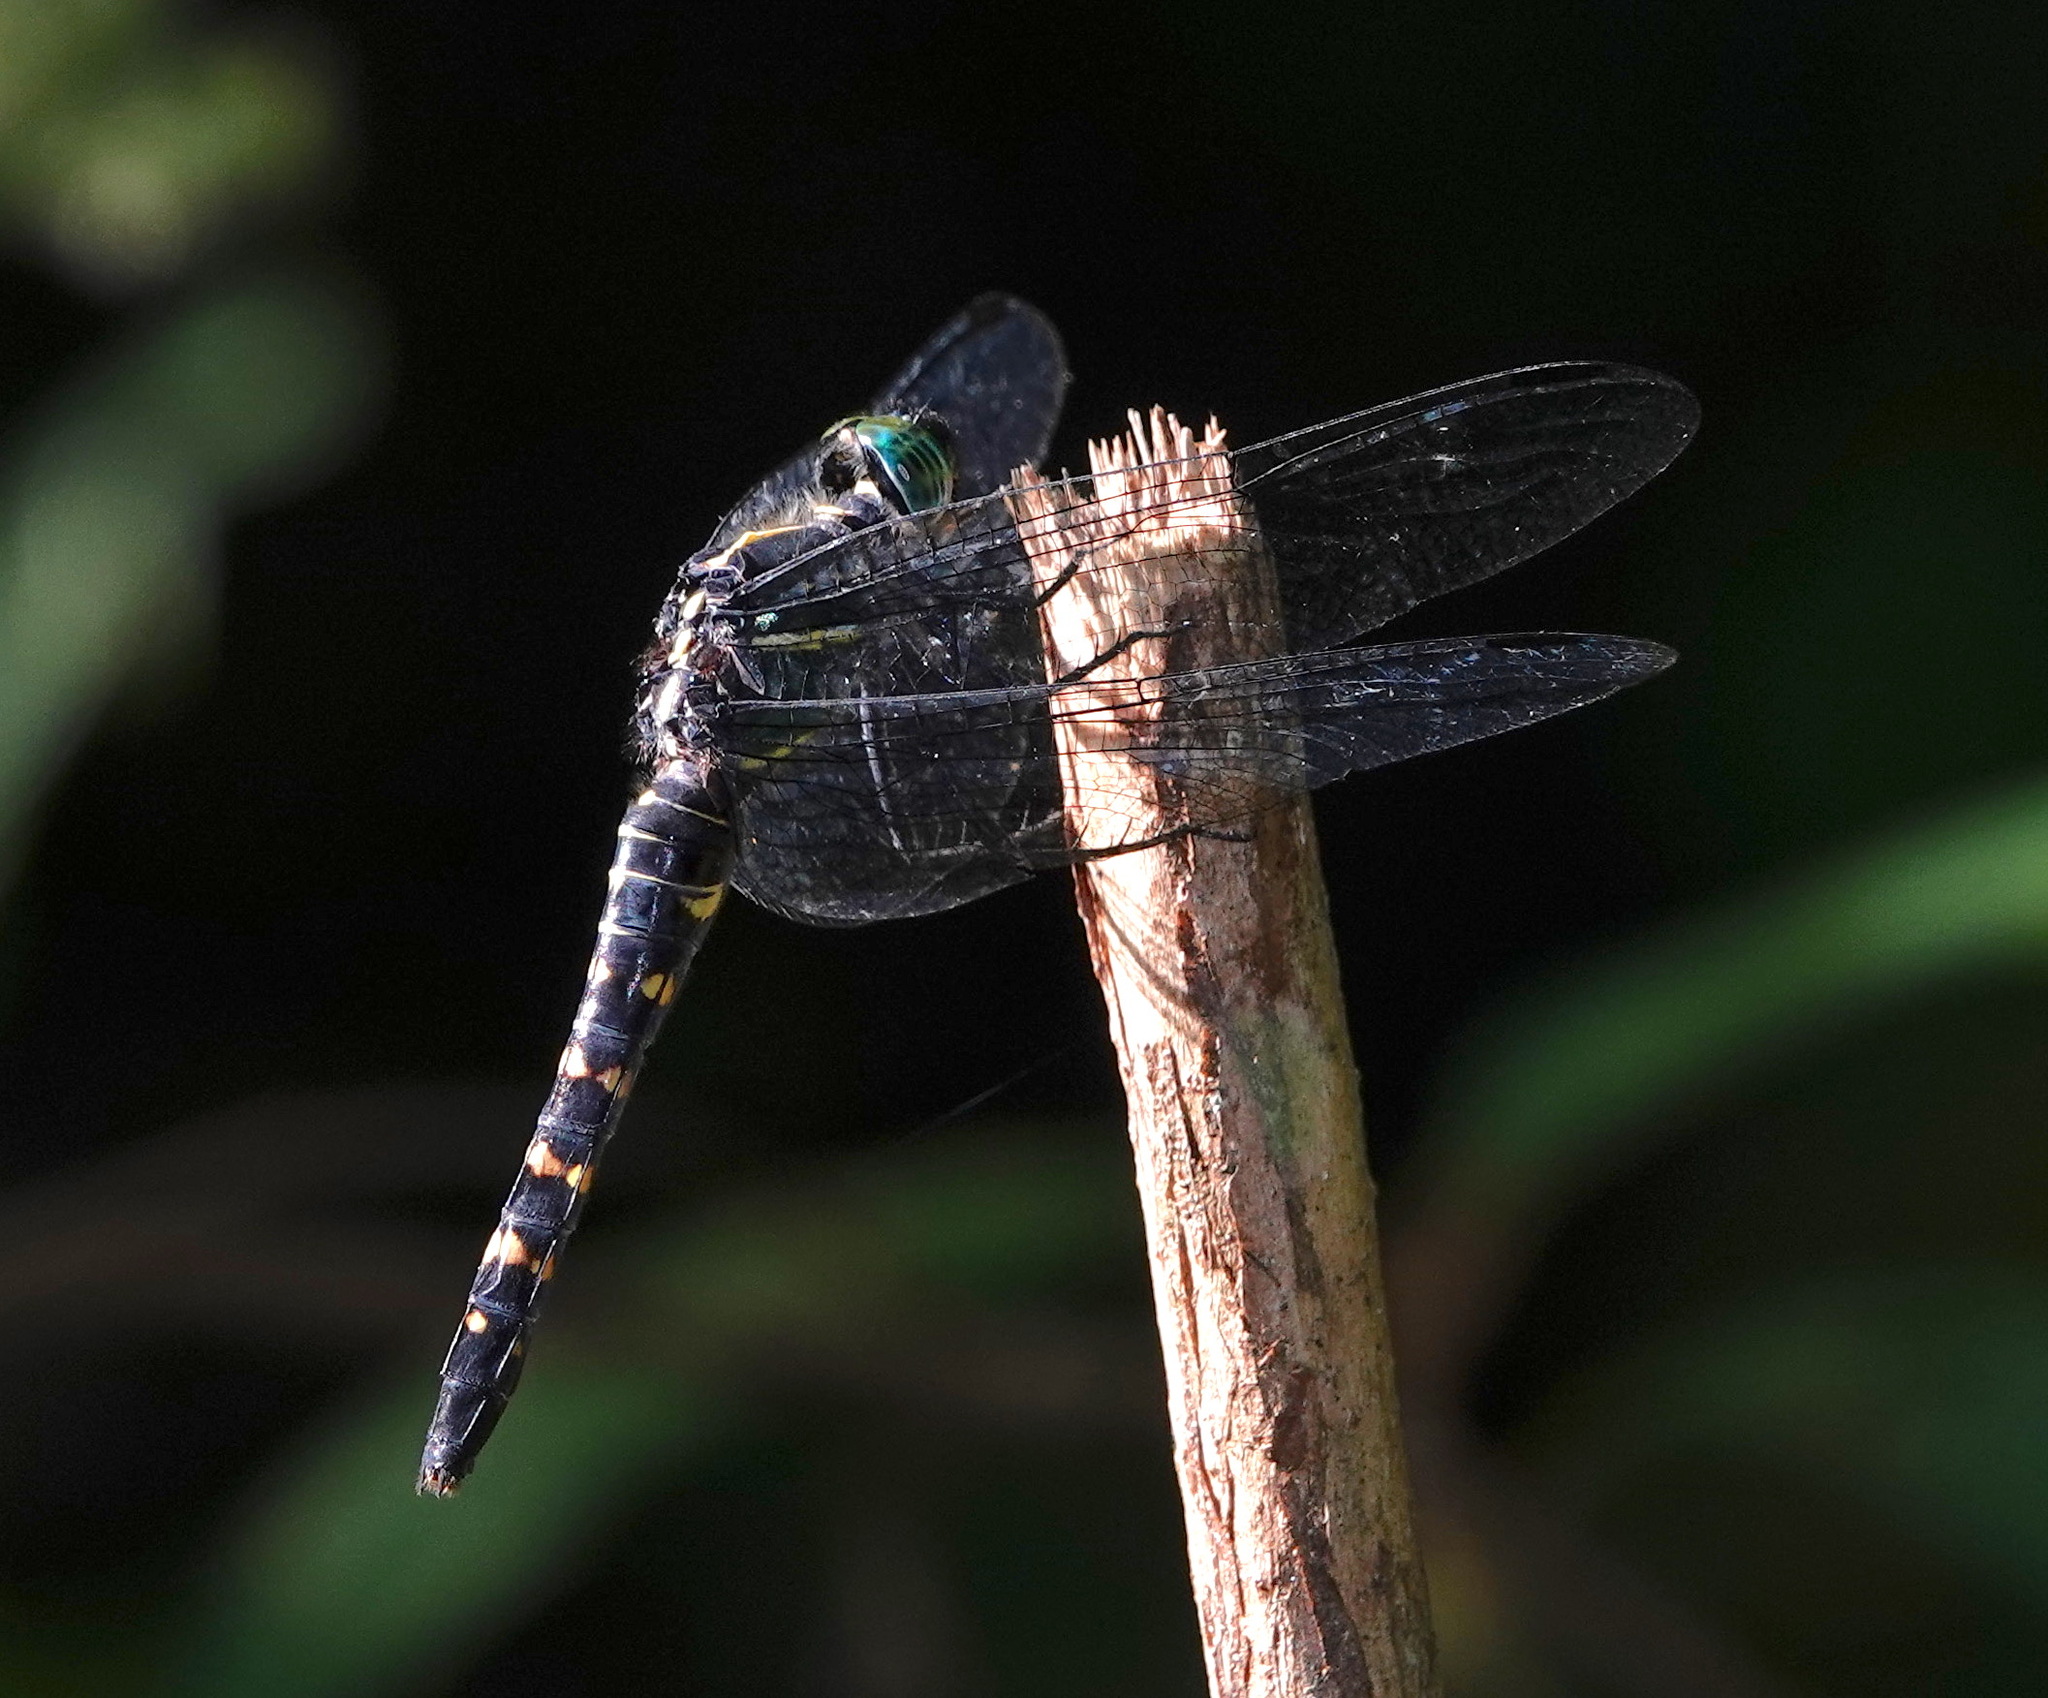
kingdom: Animalia
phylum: Arthropoda
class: Insecta
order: Odonata
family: Libellulidae
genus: Onychothemis
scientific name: Onychothemis testacea
